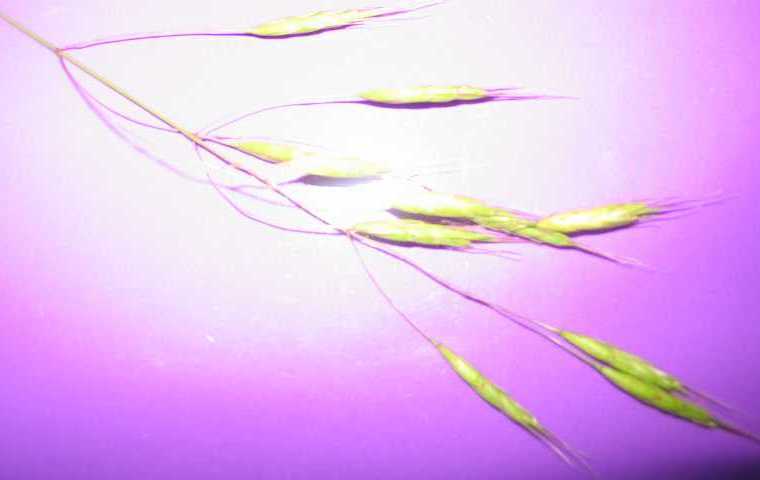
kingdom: Plantae
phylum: Tracheophyta
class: Liliopsida
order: Poales
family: Poaceae
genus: Bromus
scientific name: Bromus tectorum
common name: Cheatgrass
